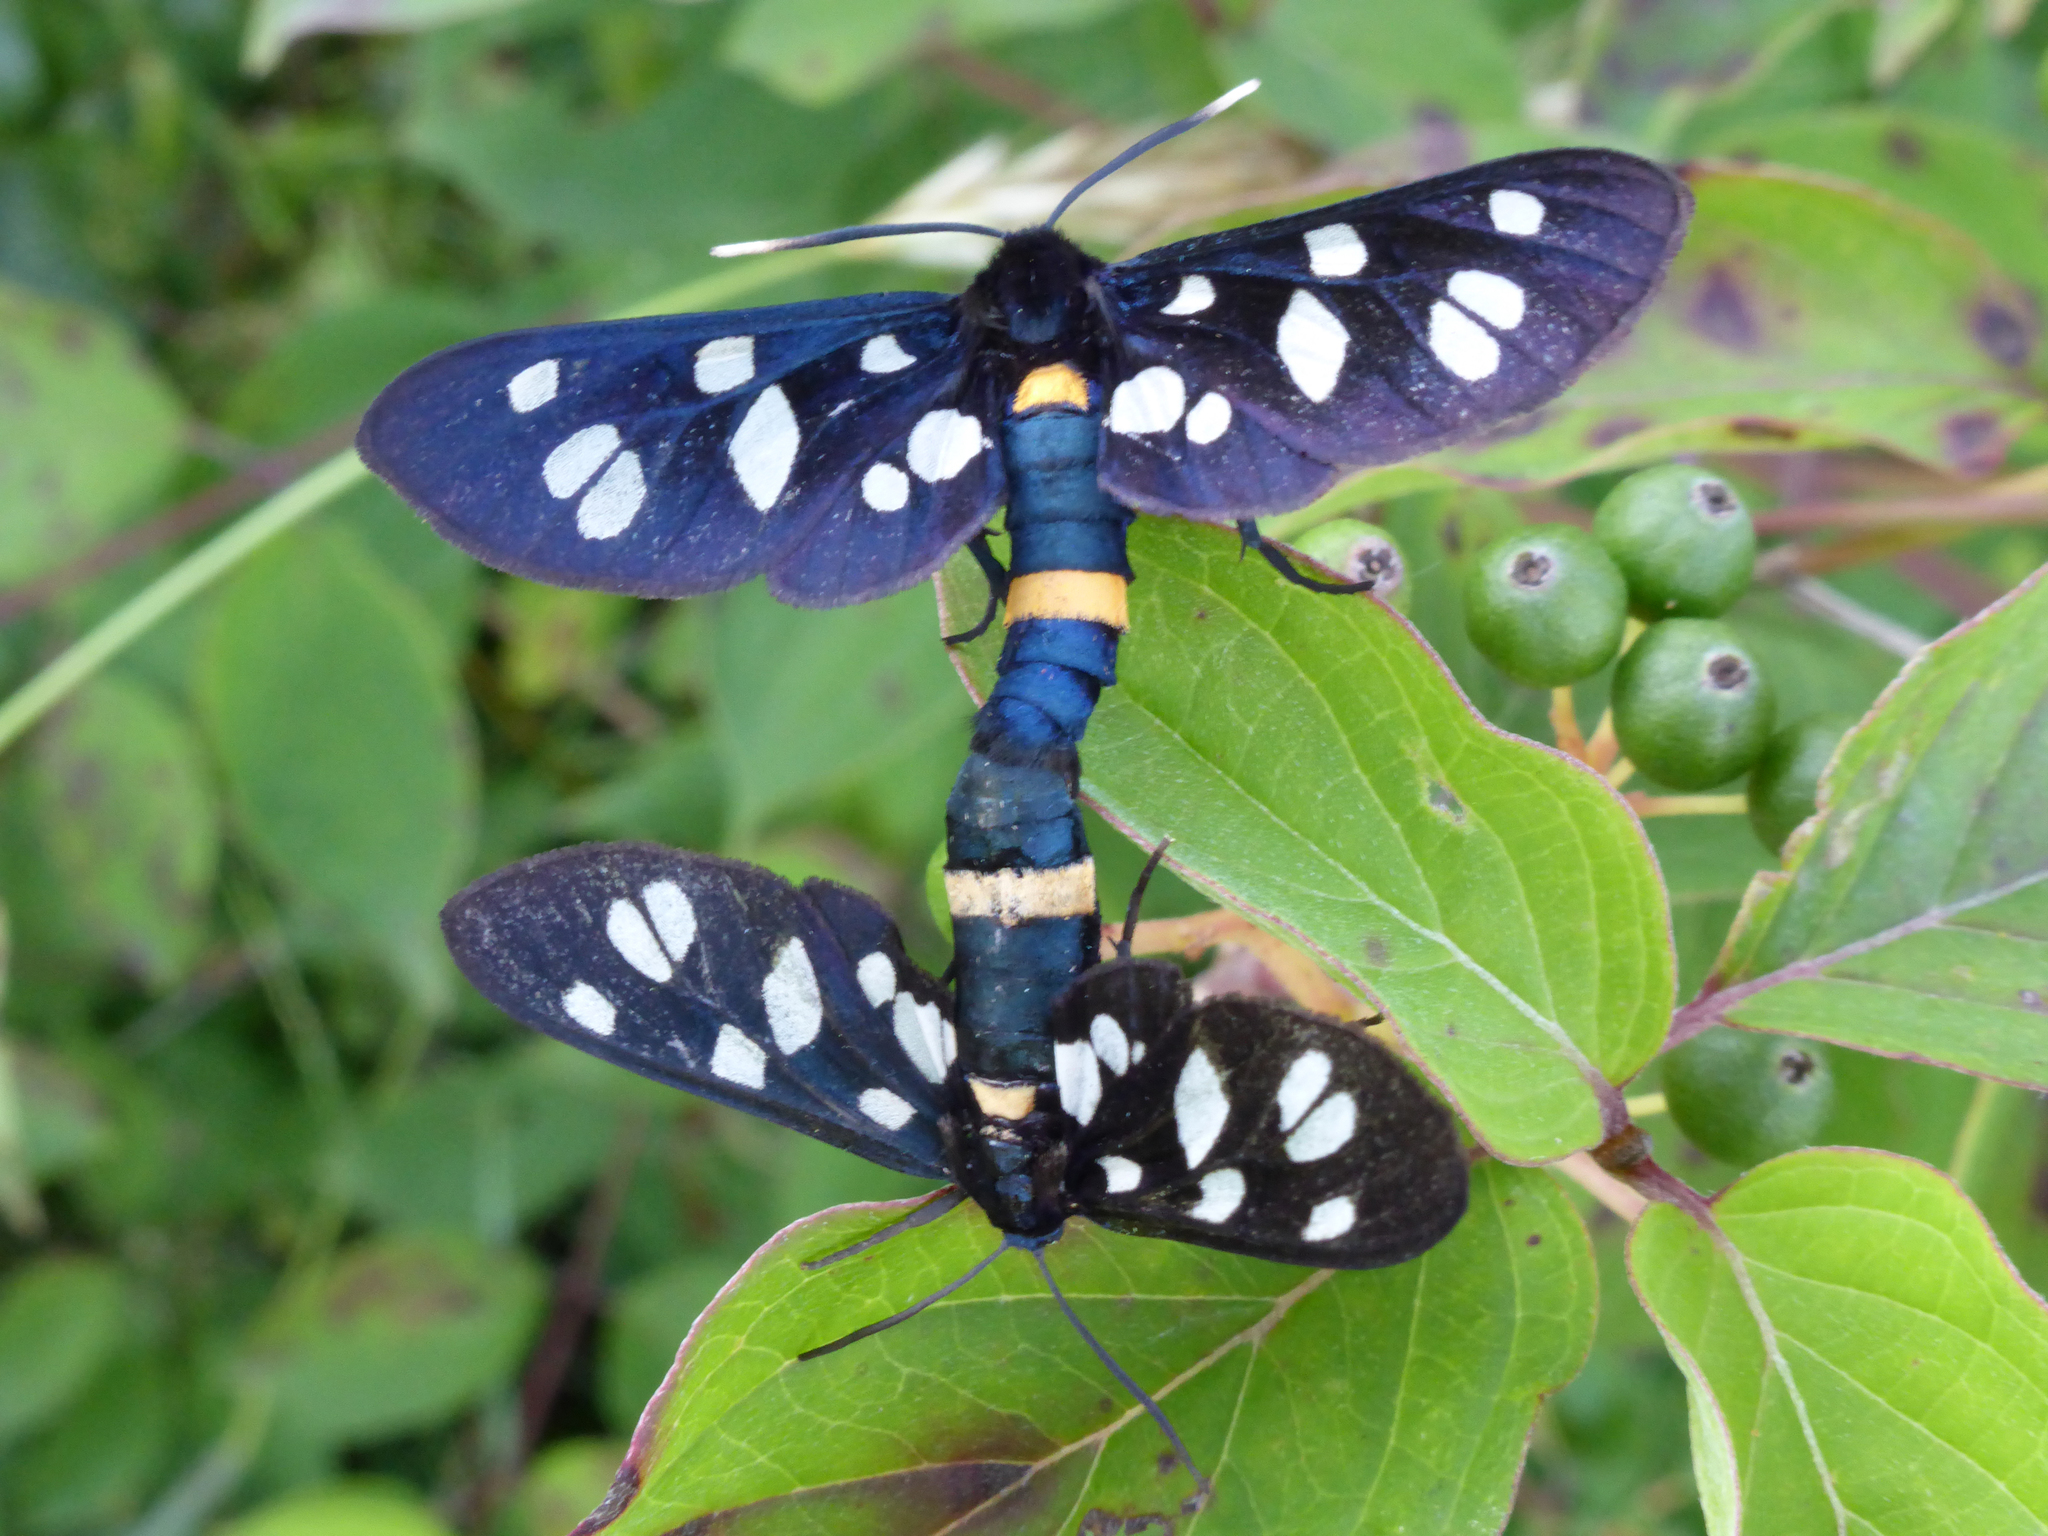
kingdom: Animalia
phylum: Arthropoda
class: Insecta
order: Lepidoptera
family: Erebidae
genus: Amata
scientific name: Amata nigricornis
